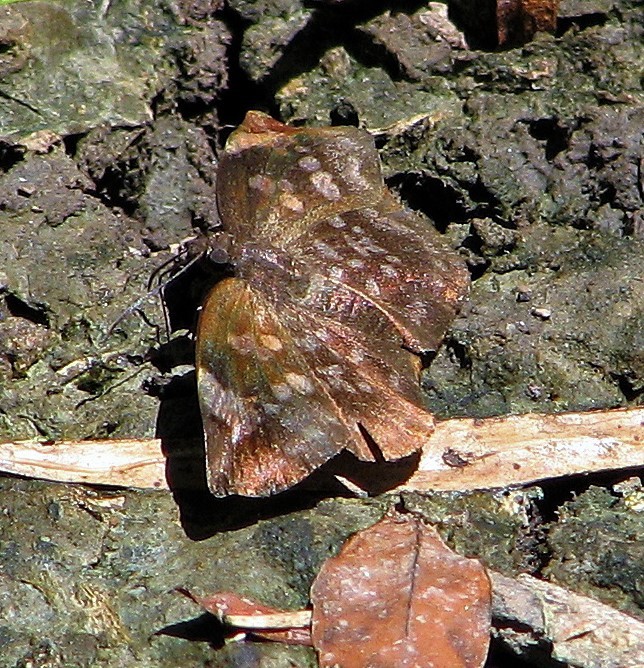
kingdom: Animalia
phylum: Arthropoda
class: Insecta
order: Lepidoptera
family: Hesperiidae
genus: Achlyodes
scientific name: Achlyodes thraso
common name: Sickle-winged skipper
